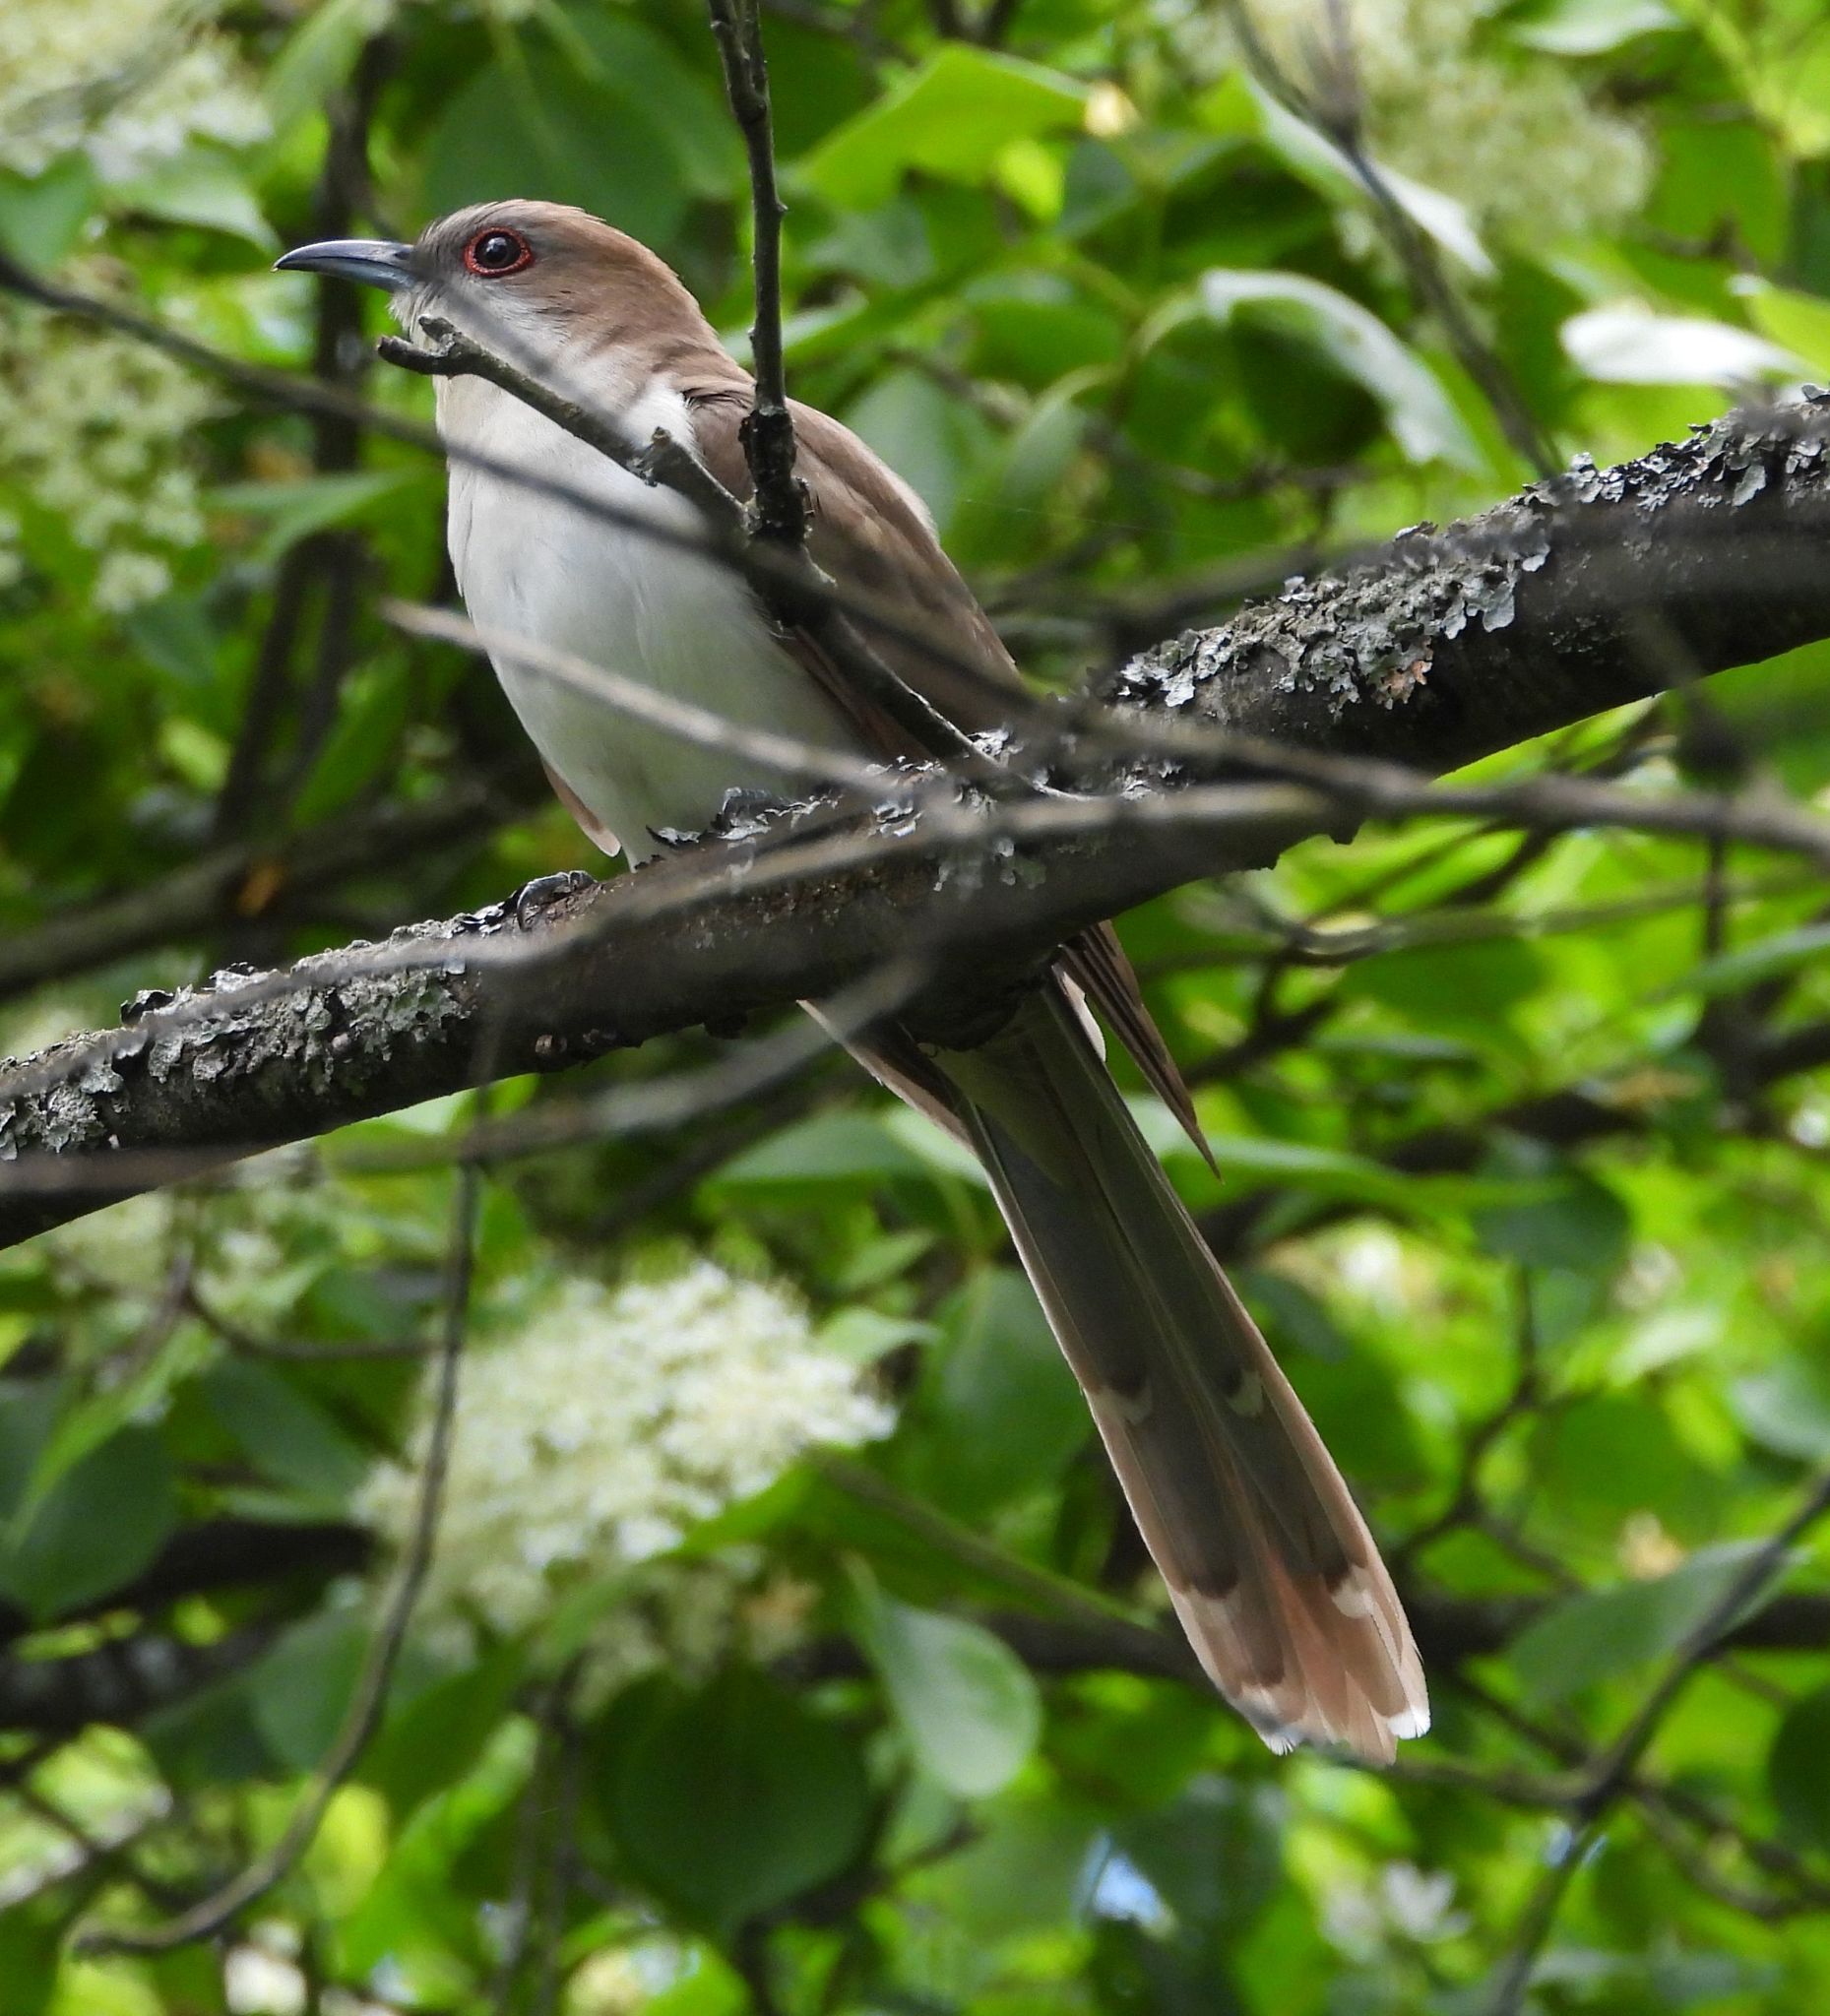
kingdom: Animalia
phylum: Chordata
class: Aves
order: Cuculiformes
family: Cuculidae
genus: Coccyzus
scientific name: Coccyzus erythropthalmus
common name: Black-billed cuckoo
